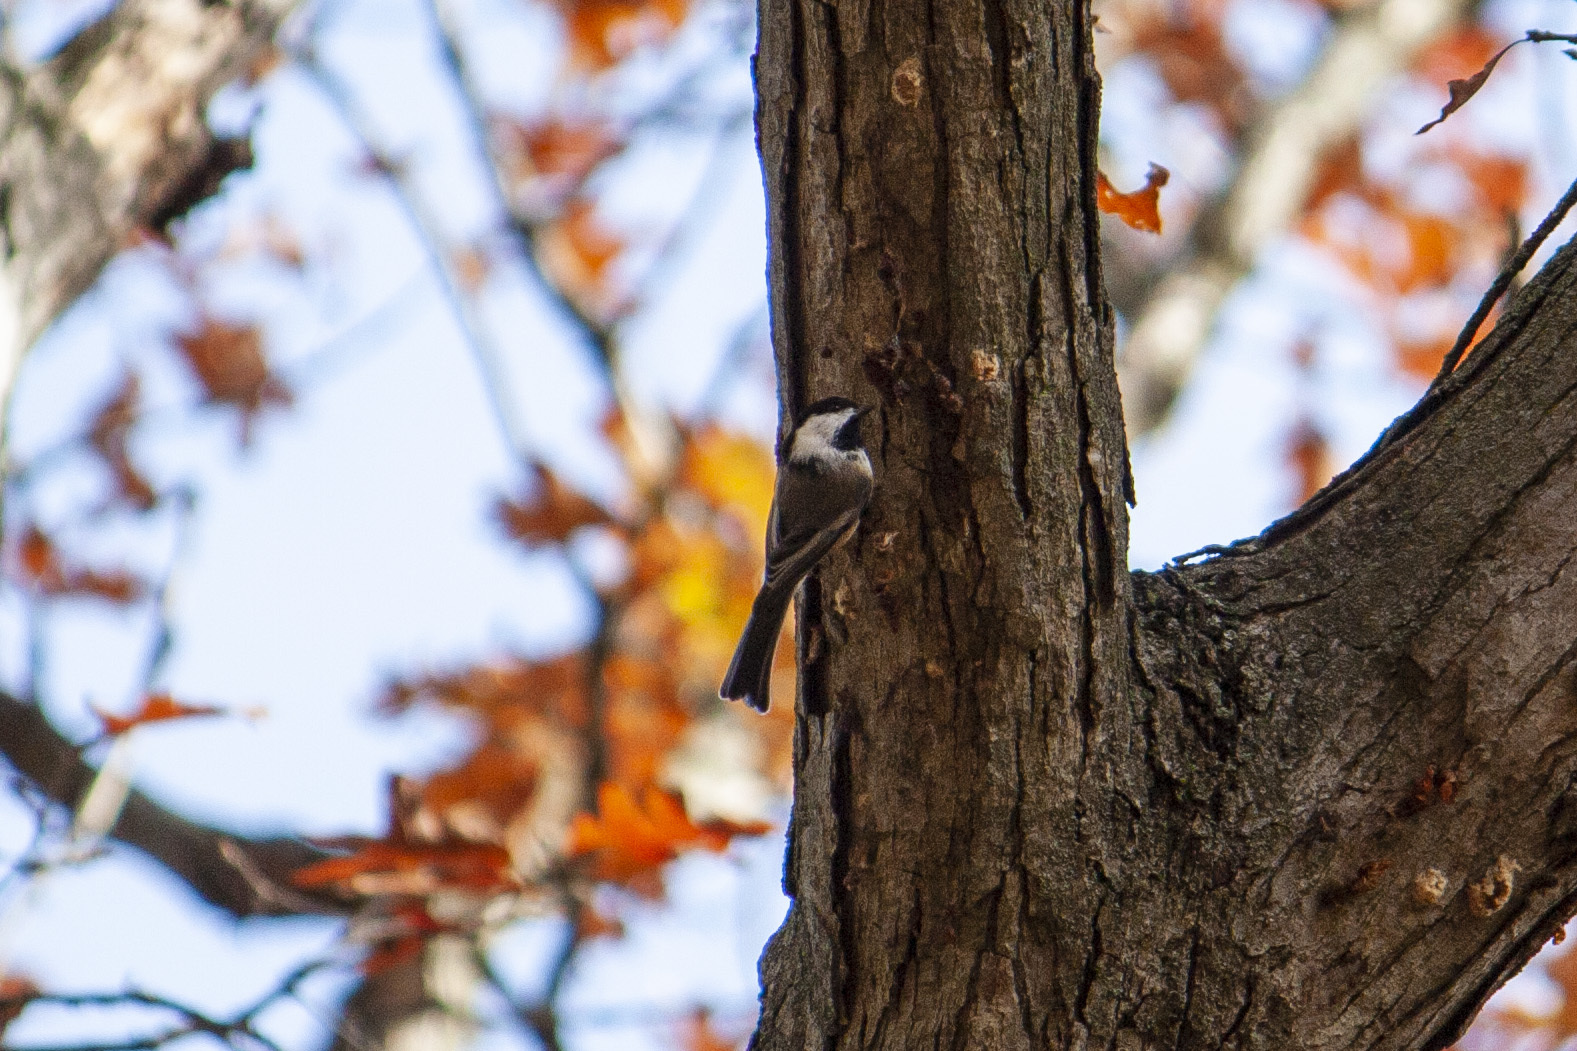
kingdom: Animalia
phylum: Chordata
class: Aves
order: Passeriformes
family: Paridae
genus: Poecile
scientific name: Poecile atricapillus
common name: Black-capped chickadee
